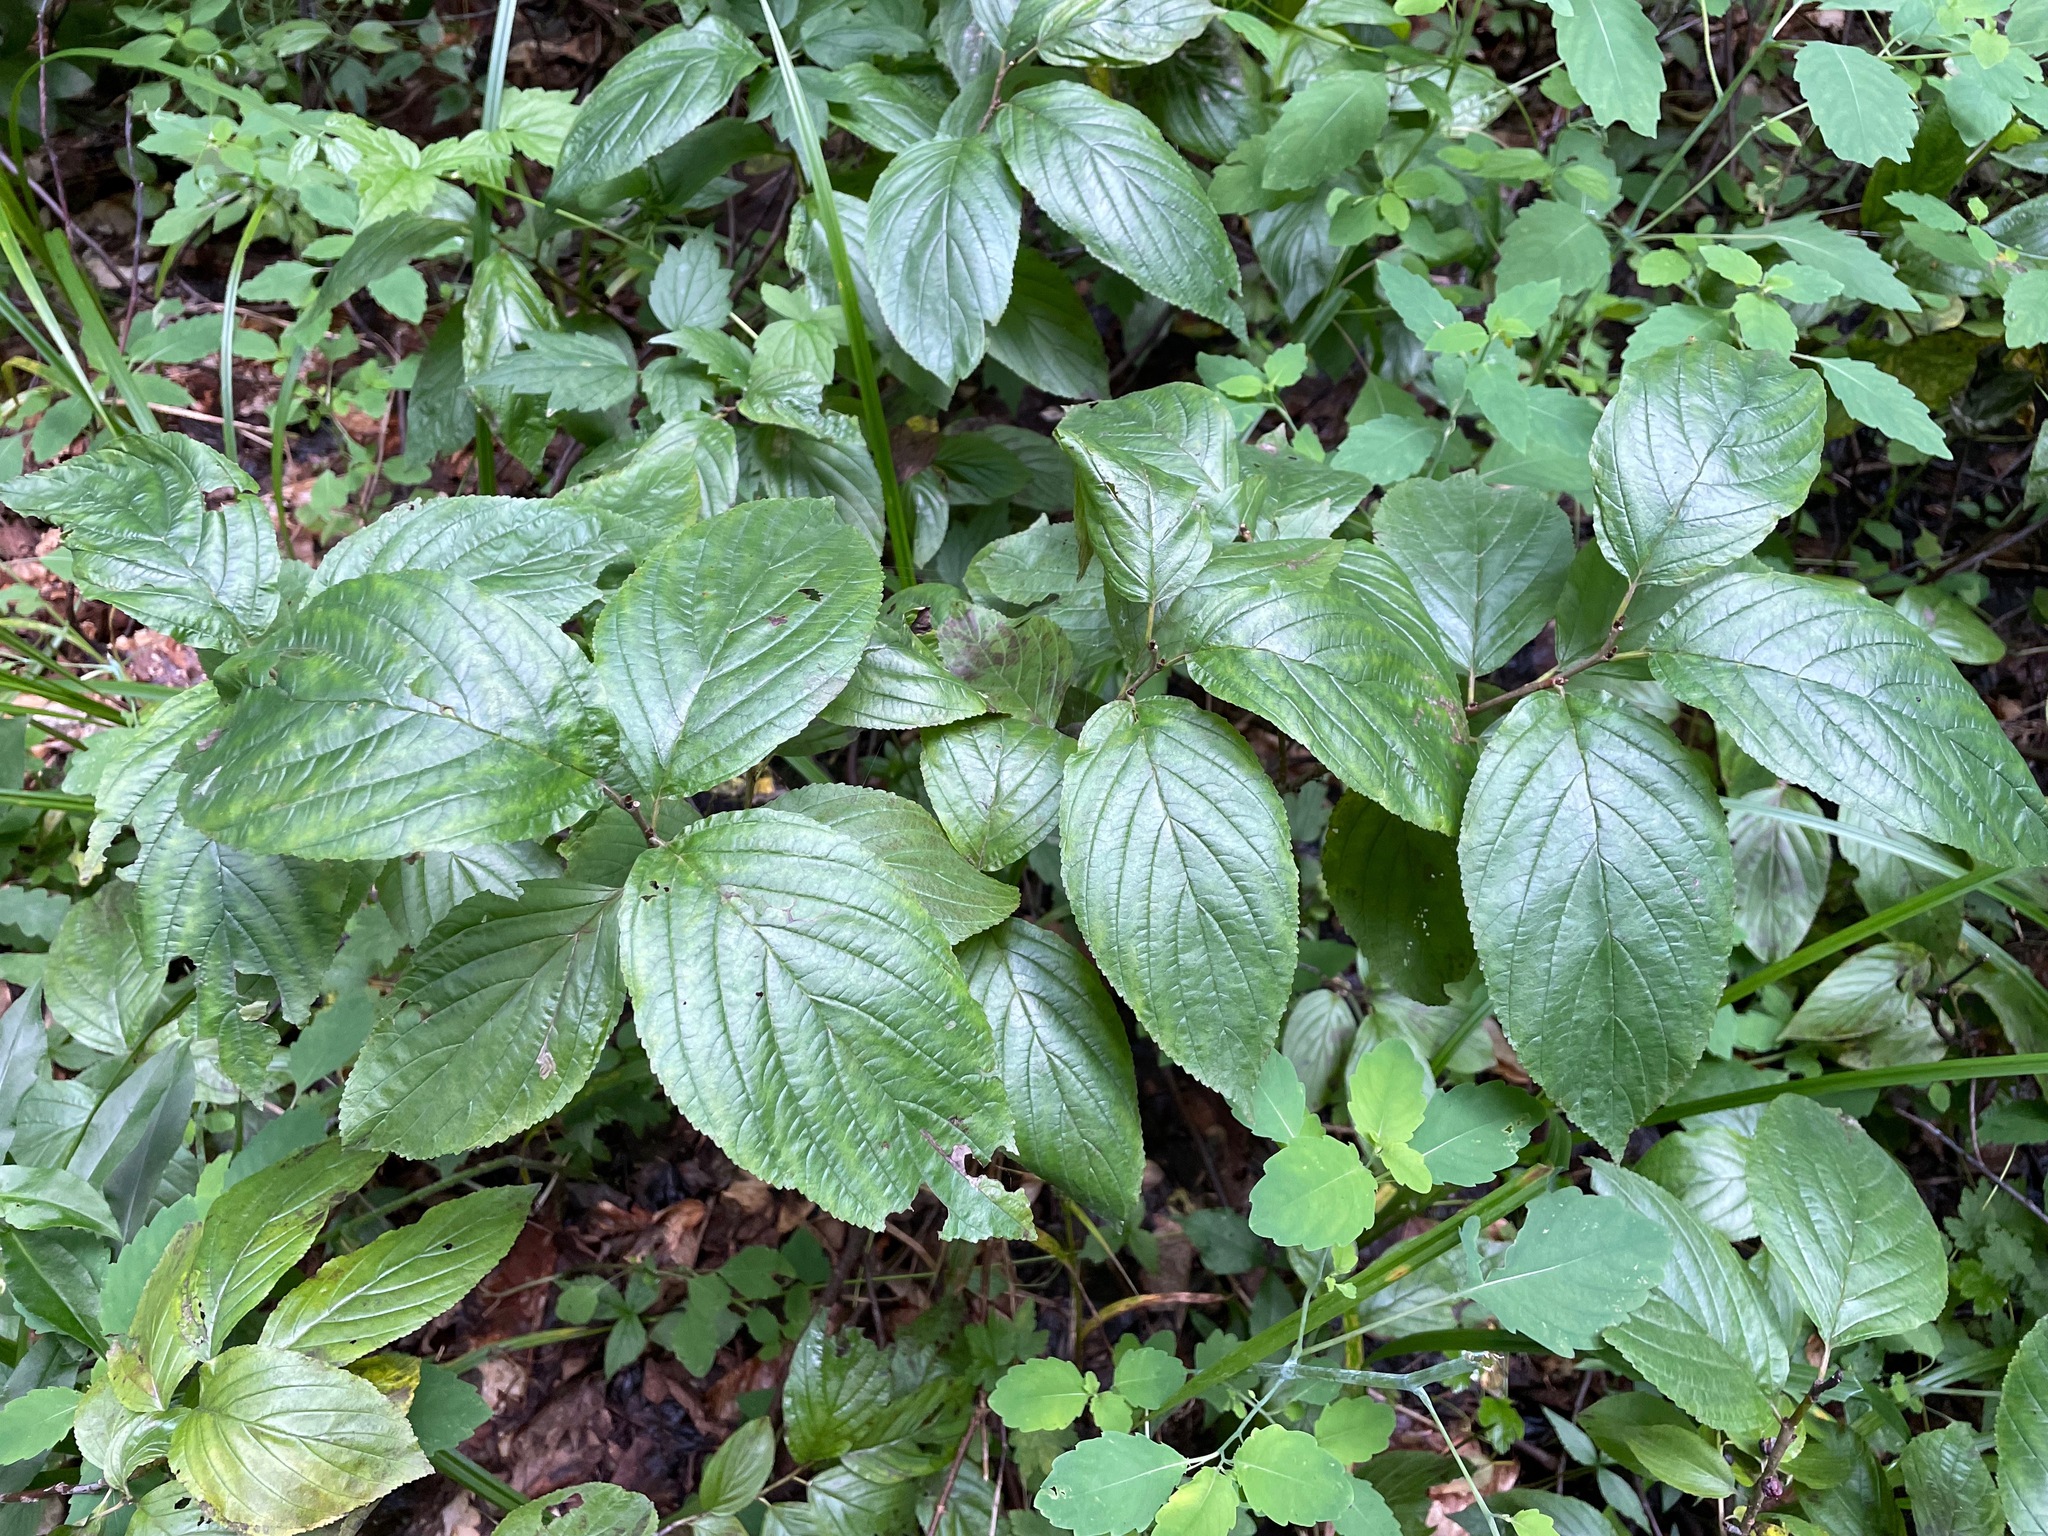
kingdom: Plantae
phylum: Tracheophyta
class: Magnoliopsida
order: Rosales
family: Rhamnaceae
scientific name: Rhamnaceae
